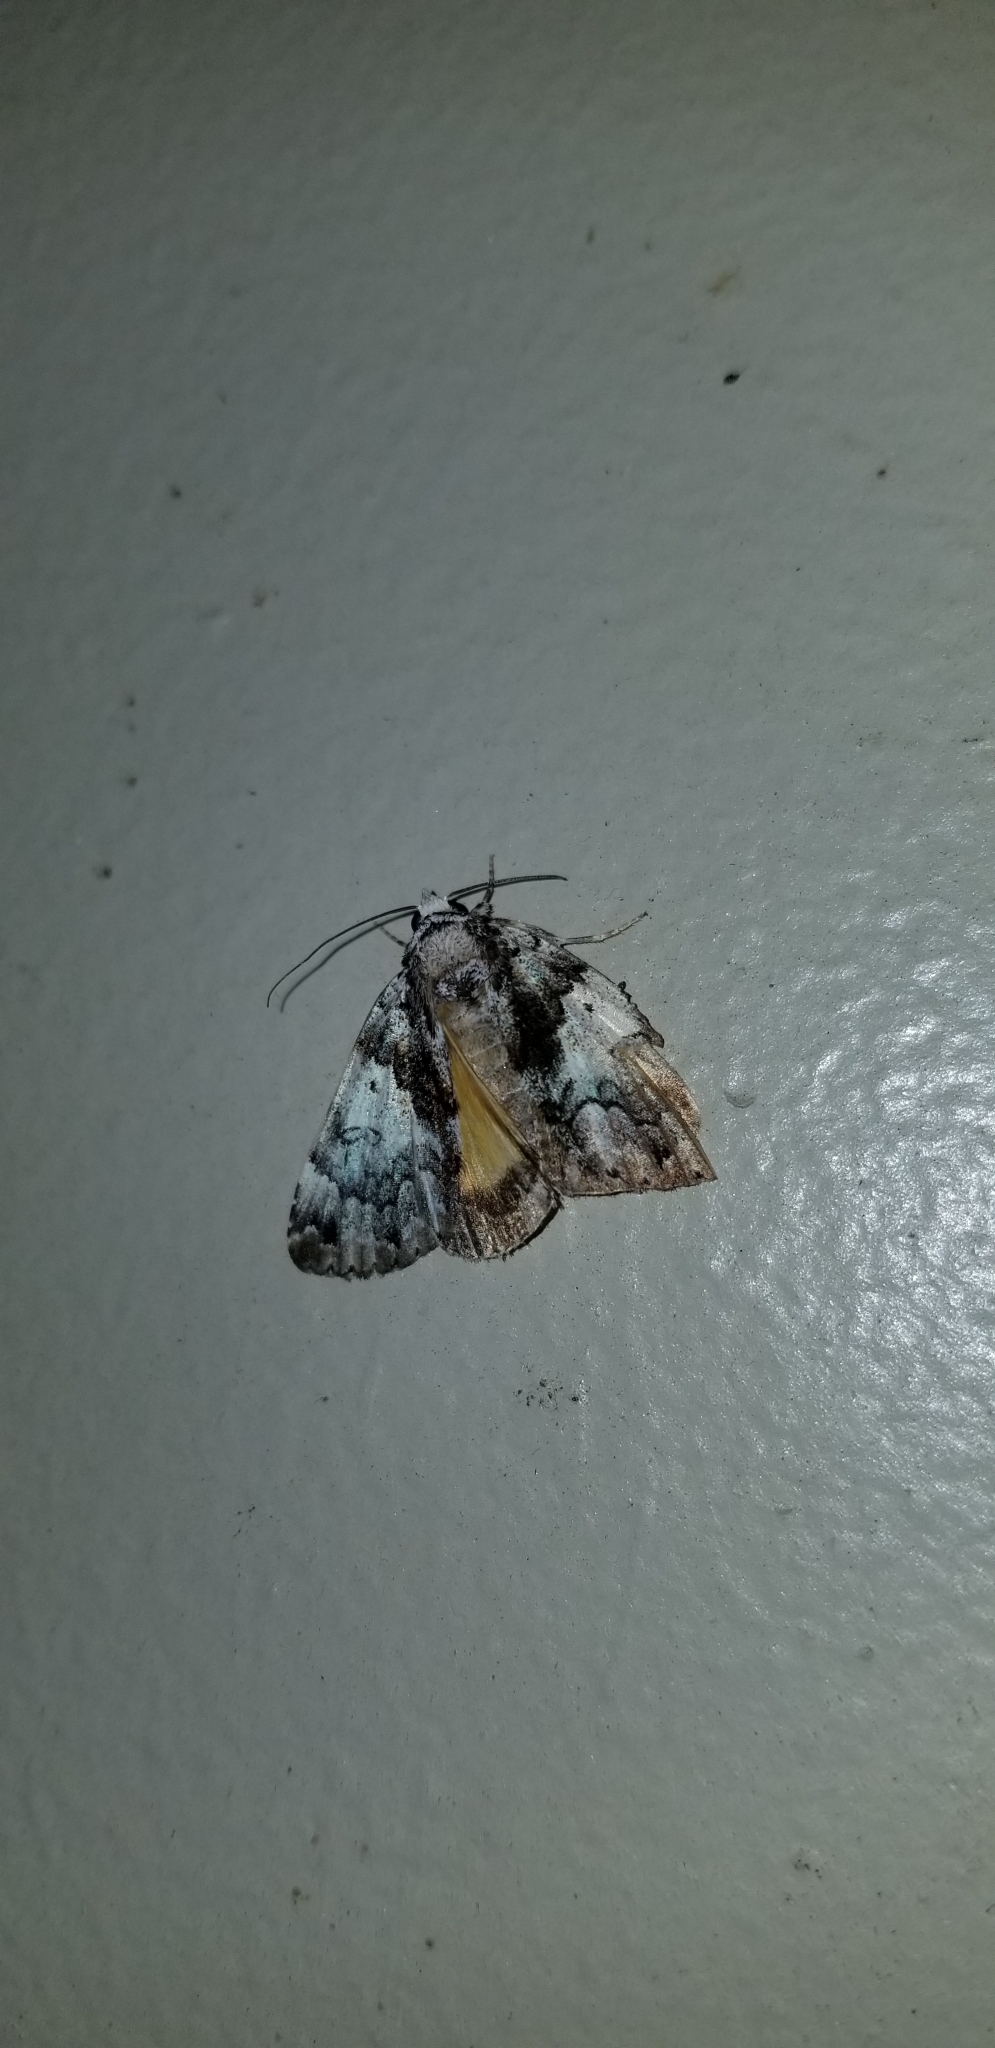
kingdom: Animalia
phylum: Arthropoda
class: Insecta
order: Lepidoptera
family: Erebidae
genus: Allotria
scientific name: Allotria elonympha
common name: False underwing
